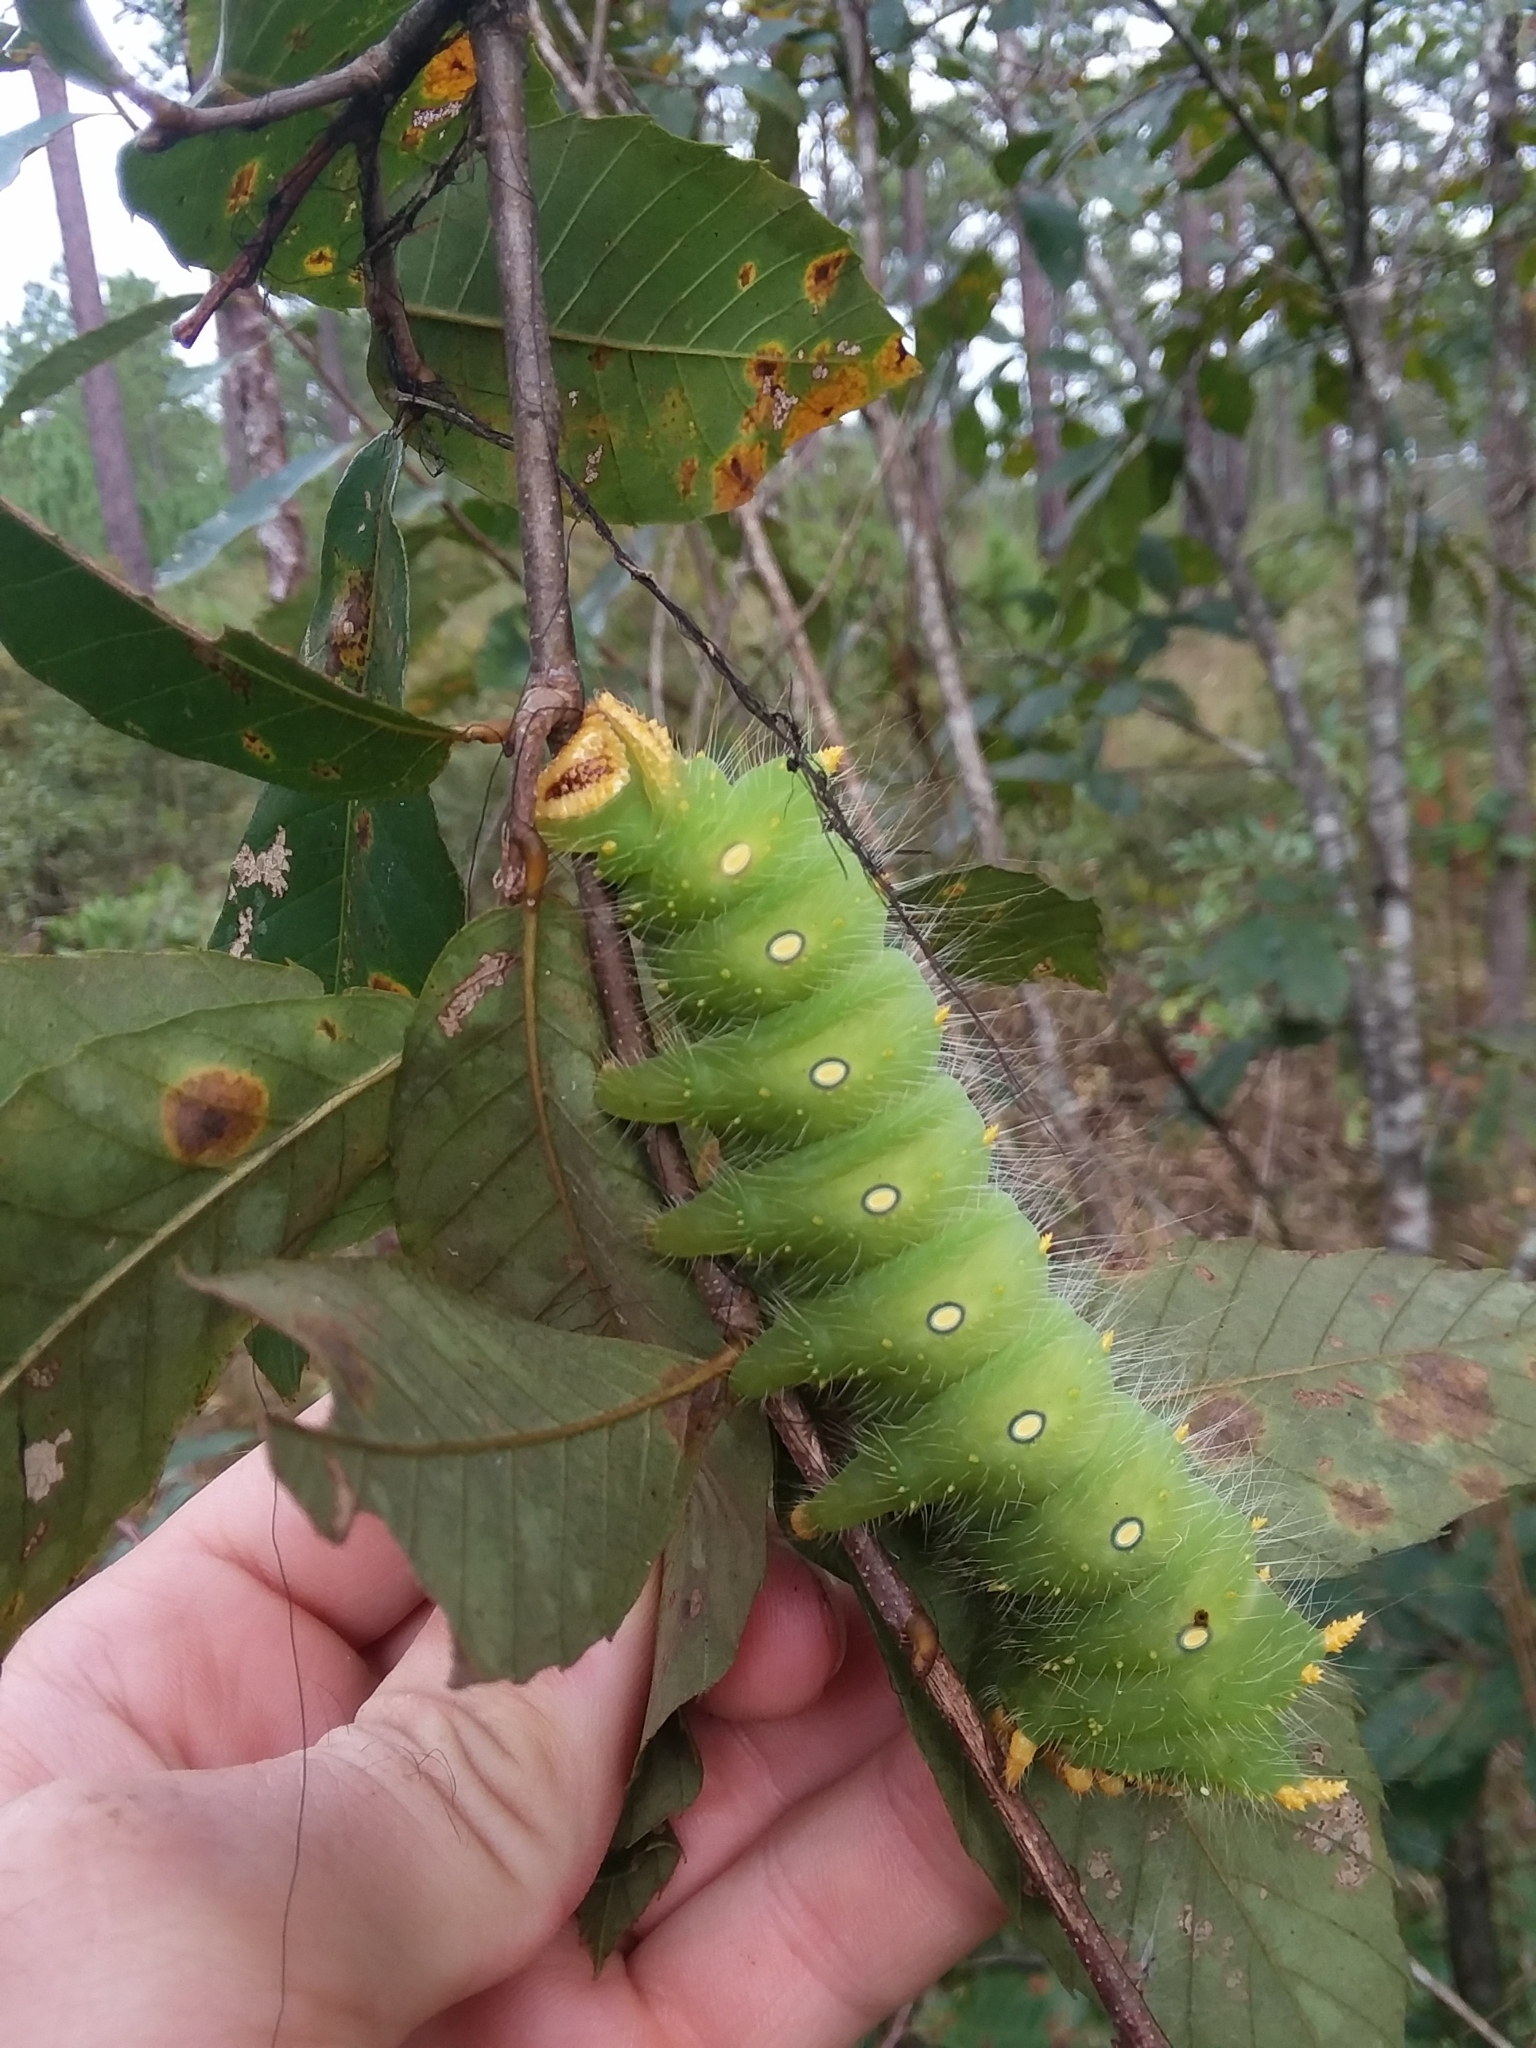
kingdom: Animalia
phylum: Arthropoda
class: Insecta
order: Lepidoptera
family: Saturniidae
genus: Eacles
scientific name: Eacles imperialis
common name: Imperial moth
